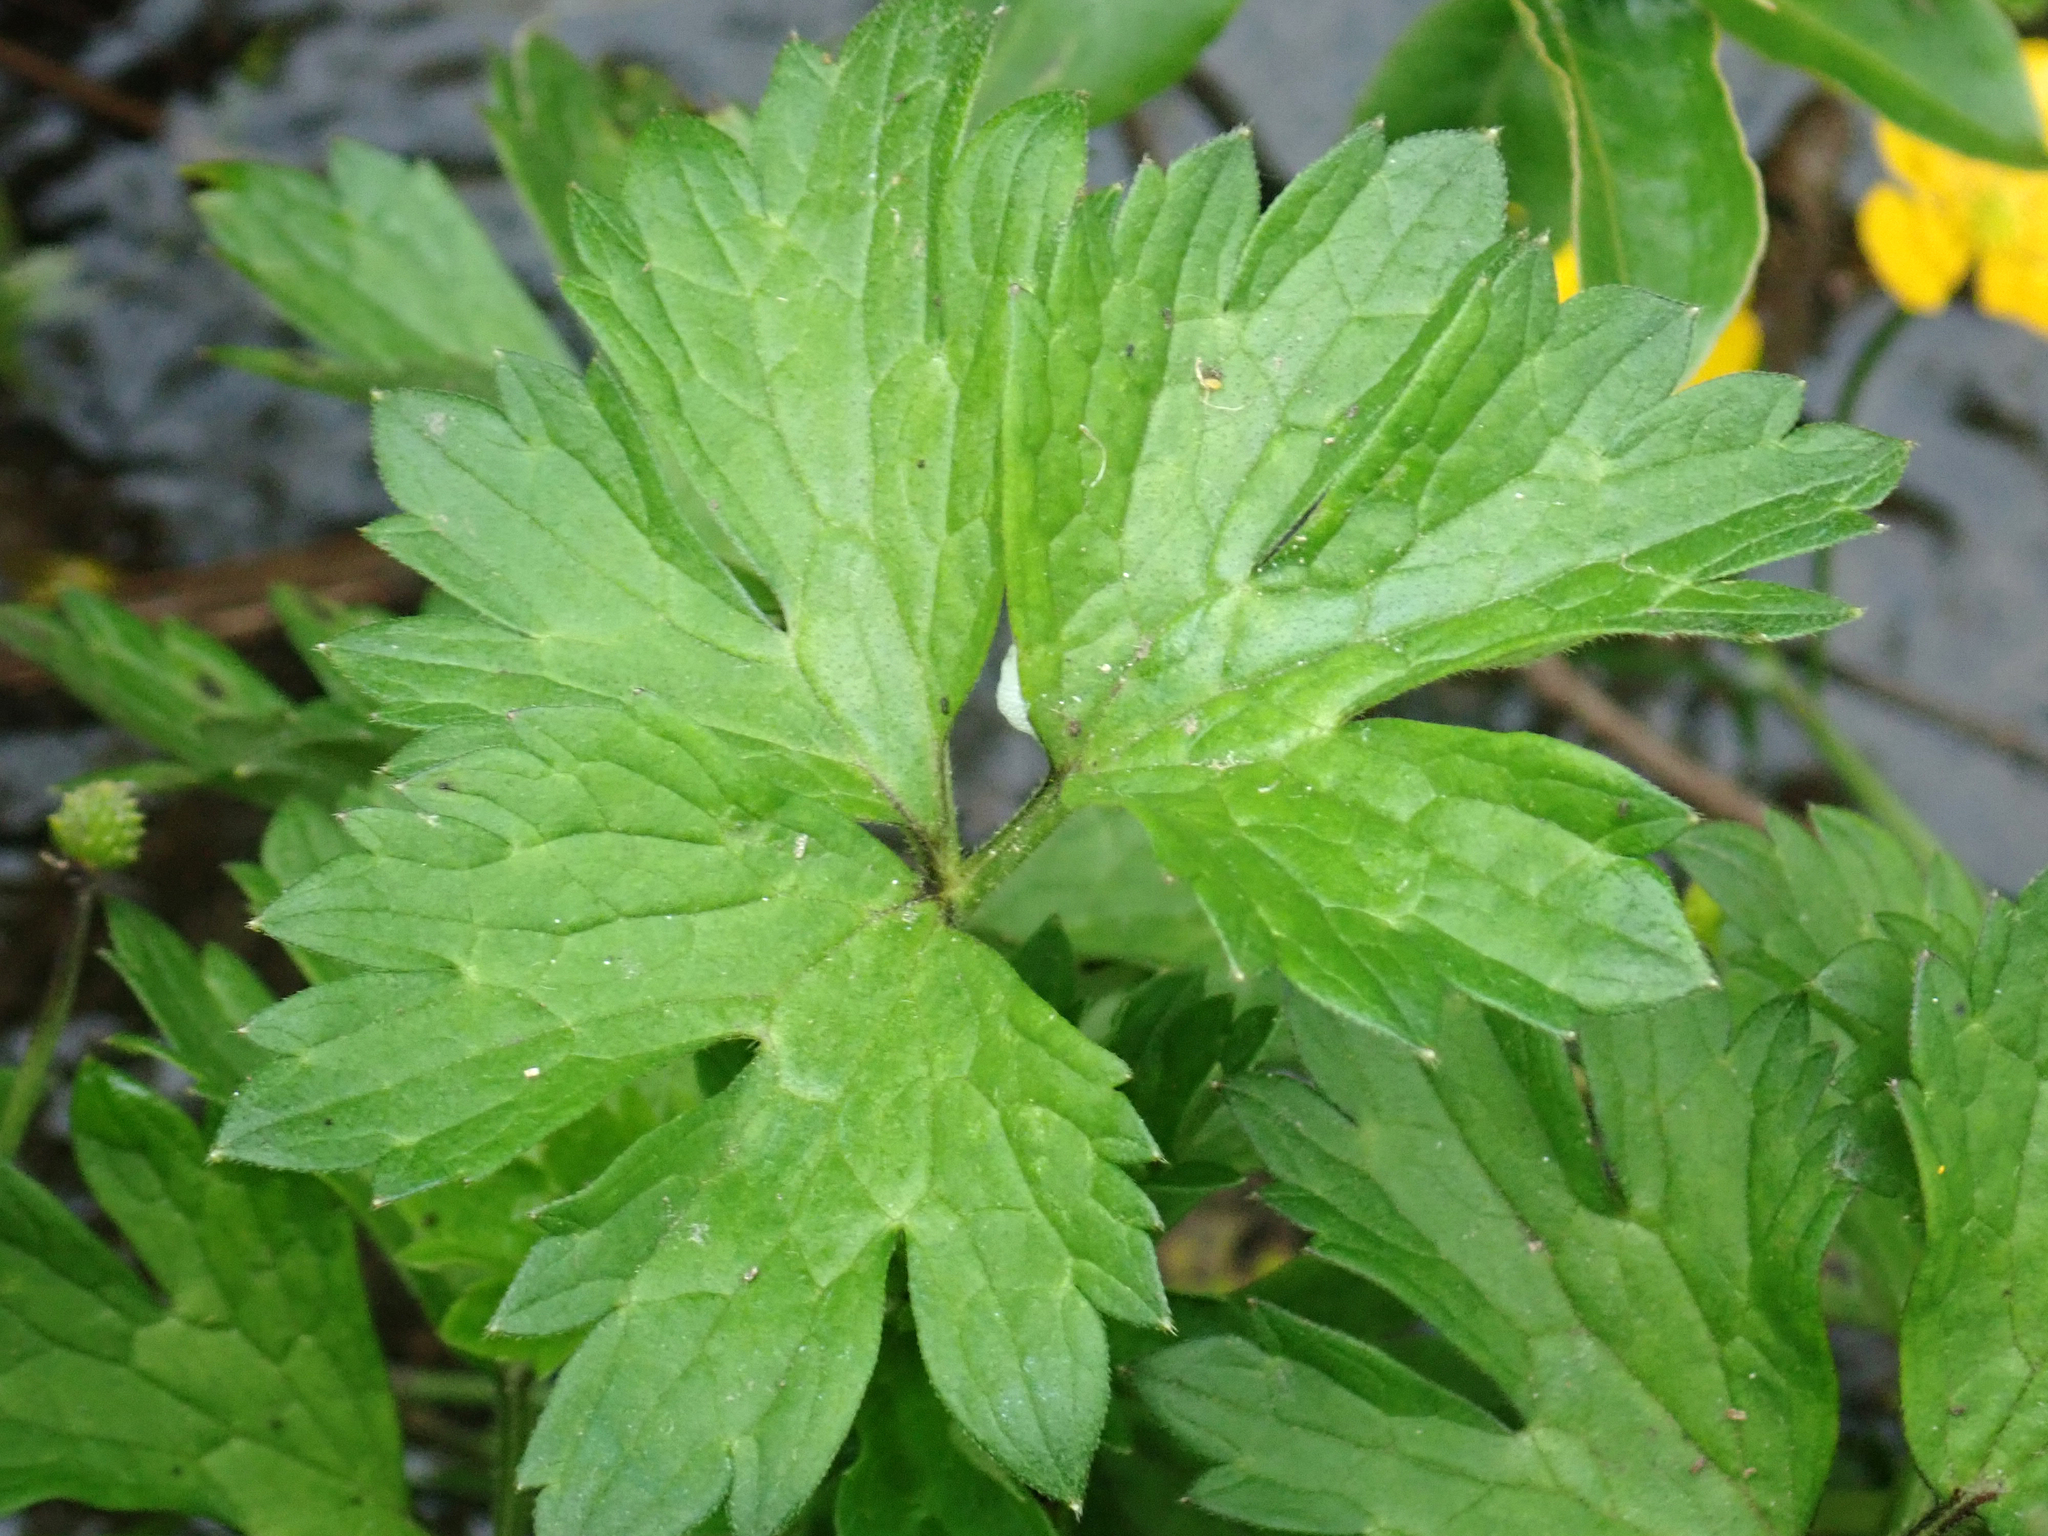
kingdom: Plantae
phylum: Tracheophyta
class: Magnoliopsida
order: Ranunculales
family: Ranunculaceae
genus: Ranunculus
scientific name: Ranunculus repens
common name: Creeping buttercup
